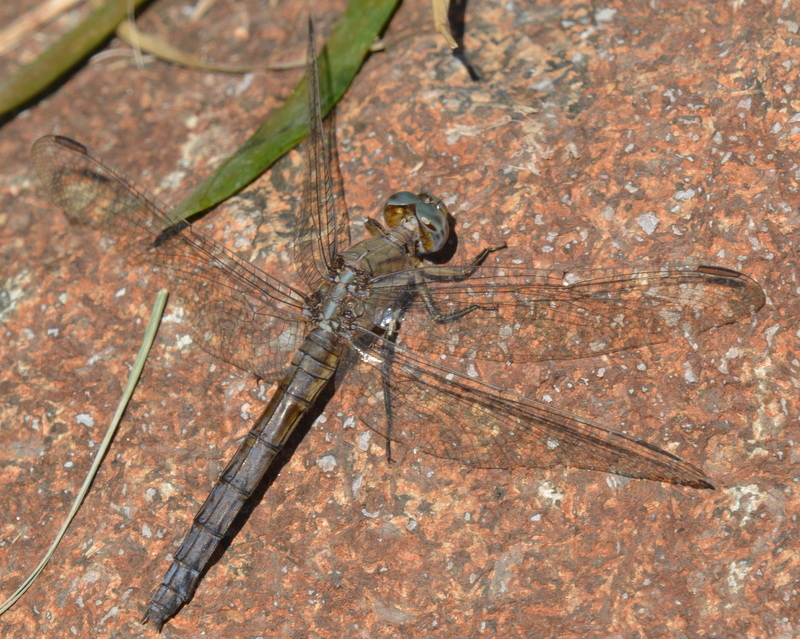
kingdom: Animalia
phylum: Arthropoda
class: Insecta
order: Odonata
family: Libellulidae
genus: Orthetrum
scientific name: Orthetrum chrysostigma
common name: Epaulet skimmer
